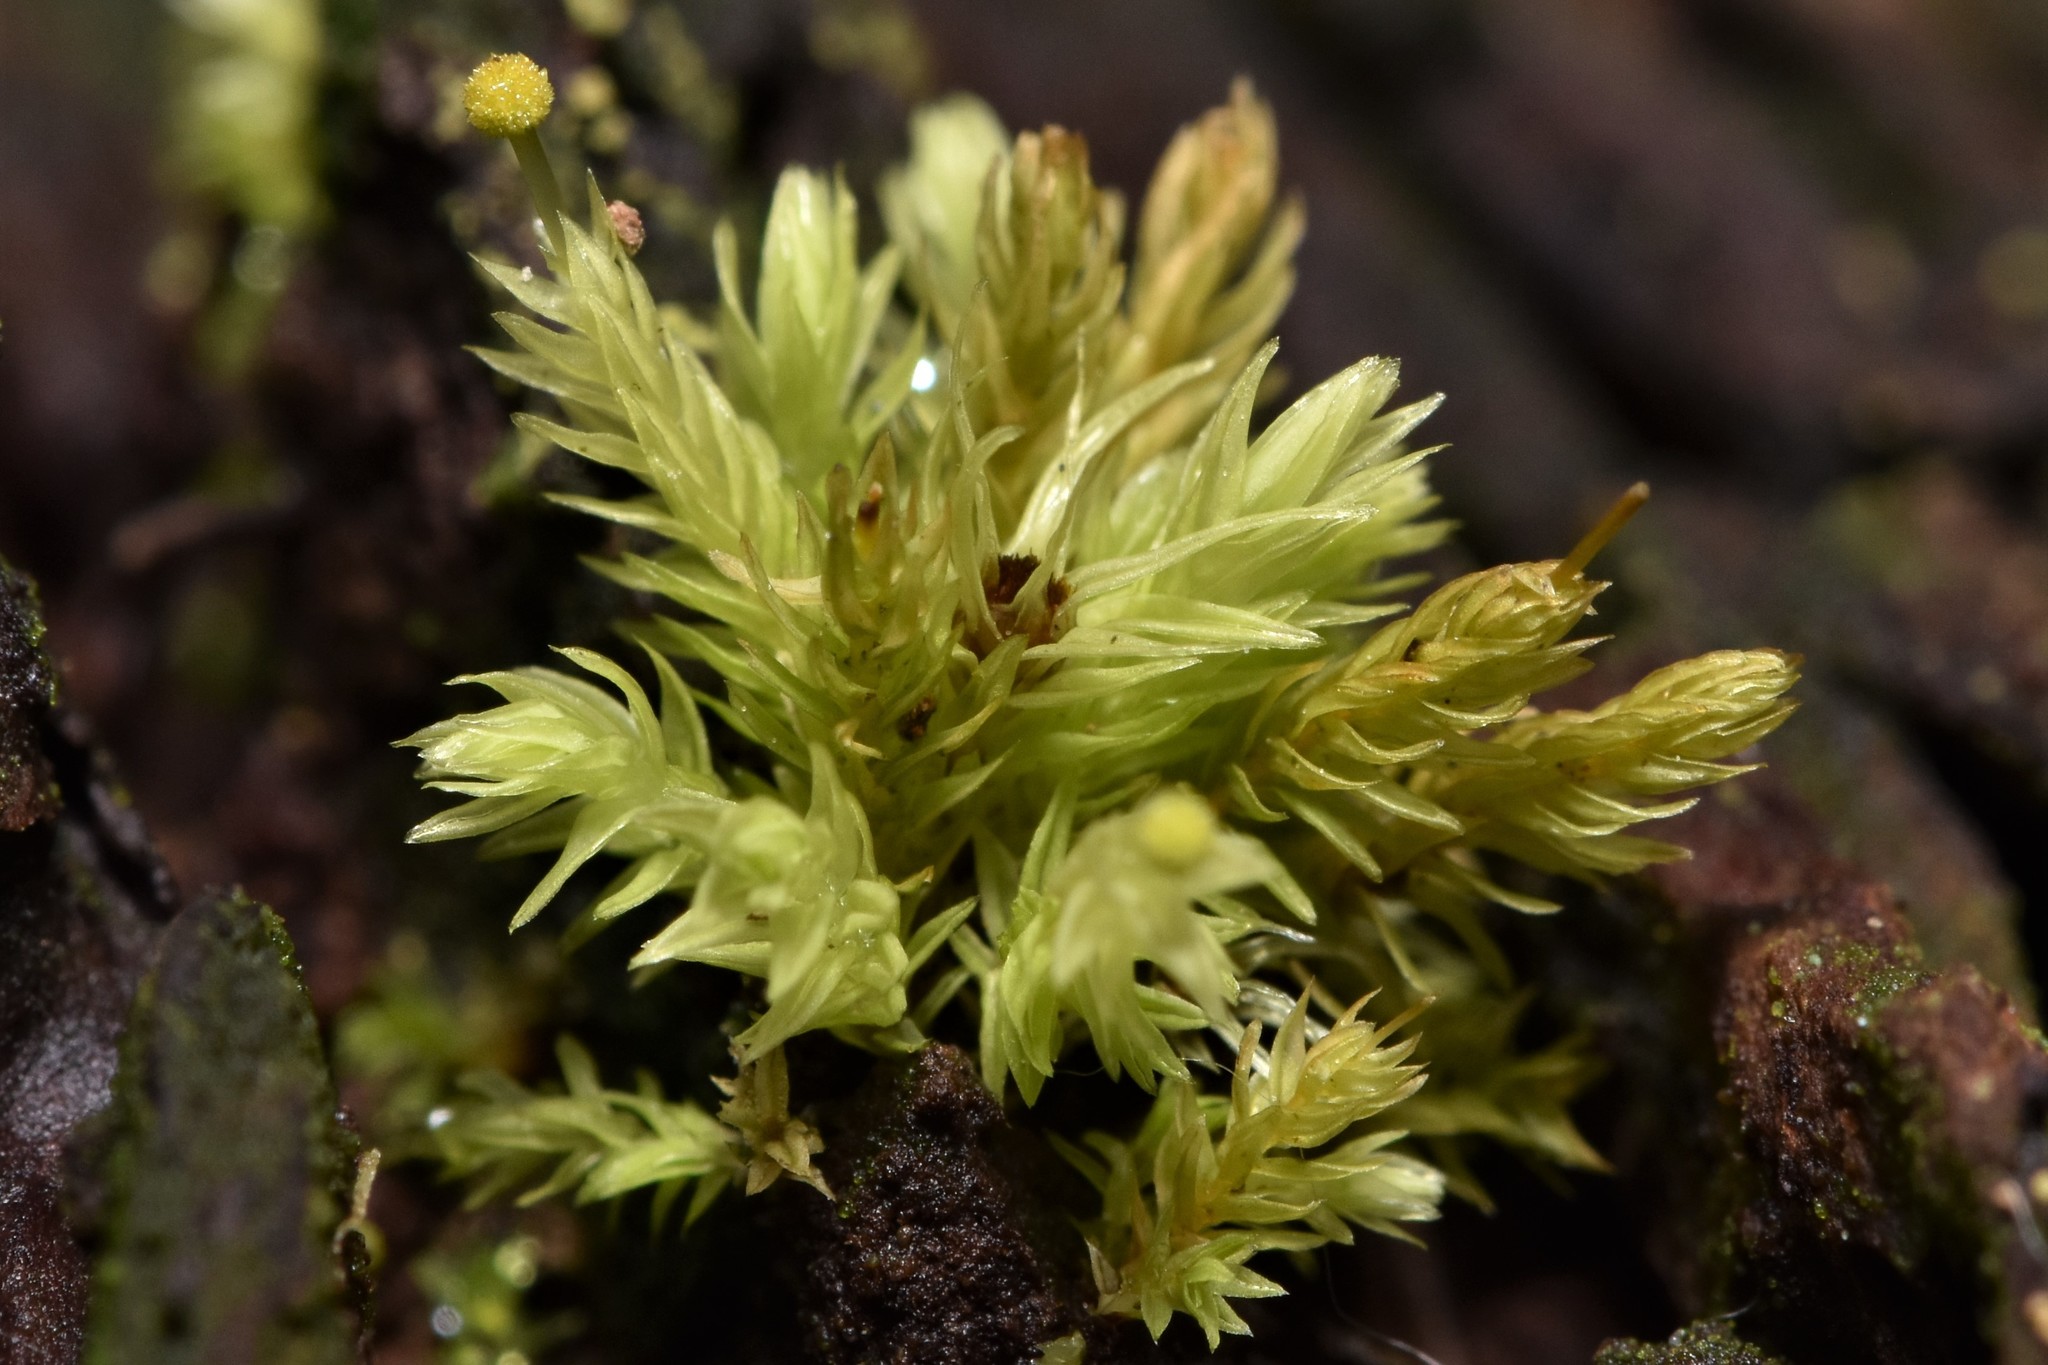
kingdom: Plantae
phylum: Bryophyta
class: Bryopsida
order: Aulacomniales
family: Aulacomniaceae
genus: Aulacomnium
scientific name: Aulacomnium androgynum
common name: Little groove moss
